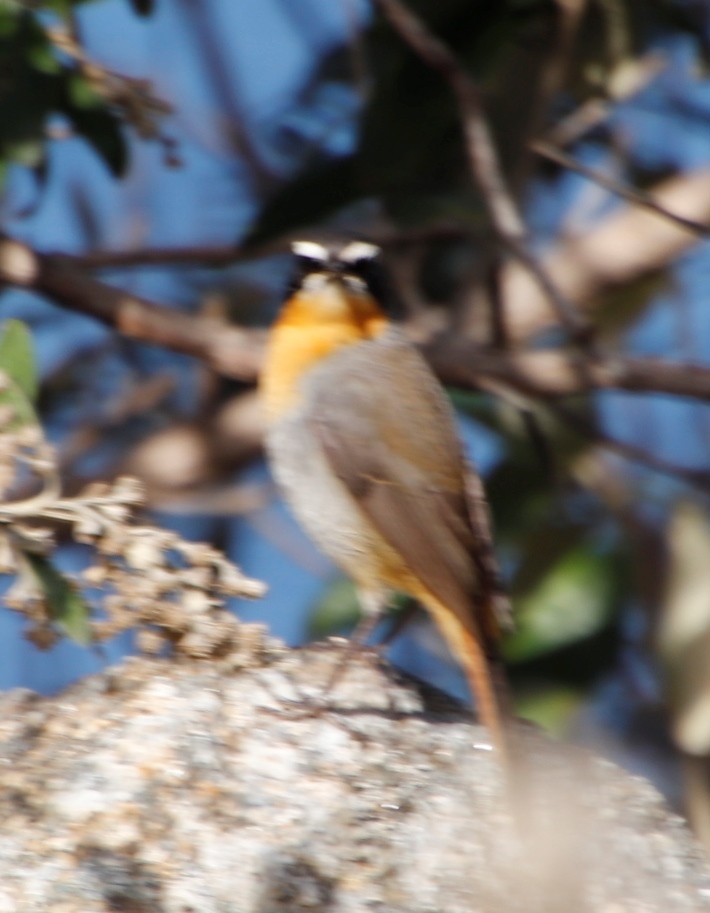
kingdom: Animalia
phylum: Chordata
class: Aves
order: Passeriformes
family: Muscicapidae
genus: Cossypha
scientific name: Cossypha caffra
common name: Cape robin-chat
